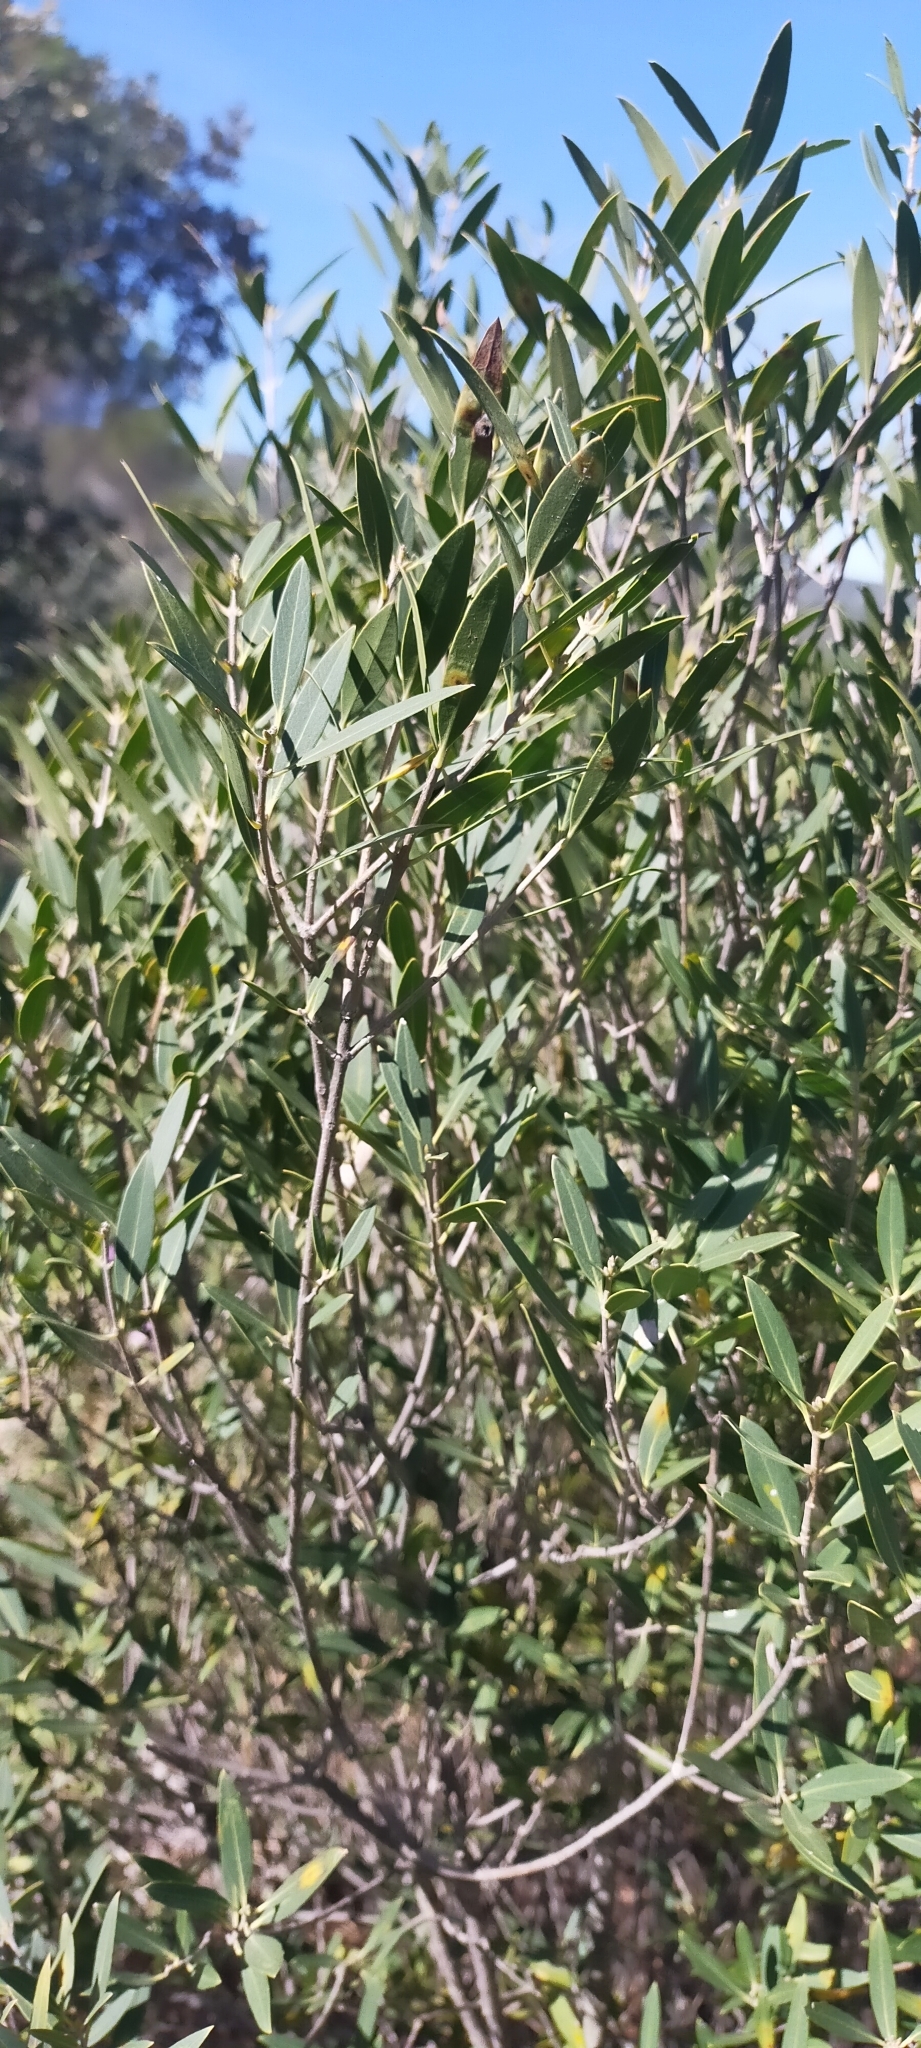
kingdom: Plantae
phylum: Tracheophyta
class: Magnoliopsida
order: Lamiales
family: Oleaceae
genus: Phillyrea
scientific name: Phillyrea angustifolia
